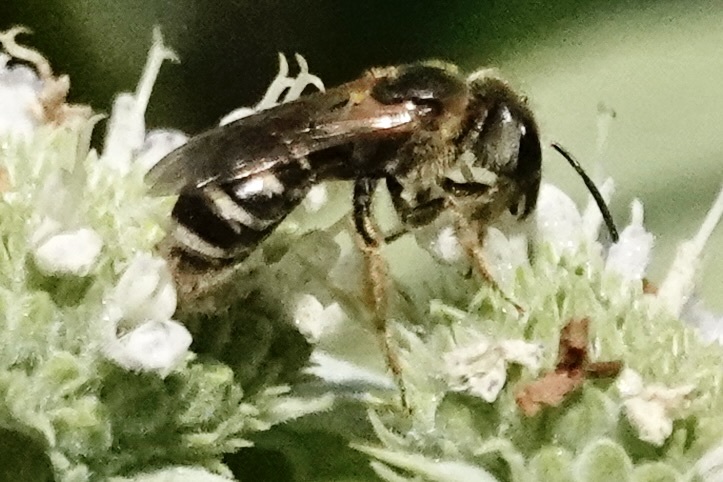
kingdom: Animalia
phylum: Arthropoda
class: Insecta
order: Hymenoptera
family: Halictidae
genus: Halictus
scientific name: Halictus ligatus
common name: Ligated furrow bee
